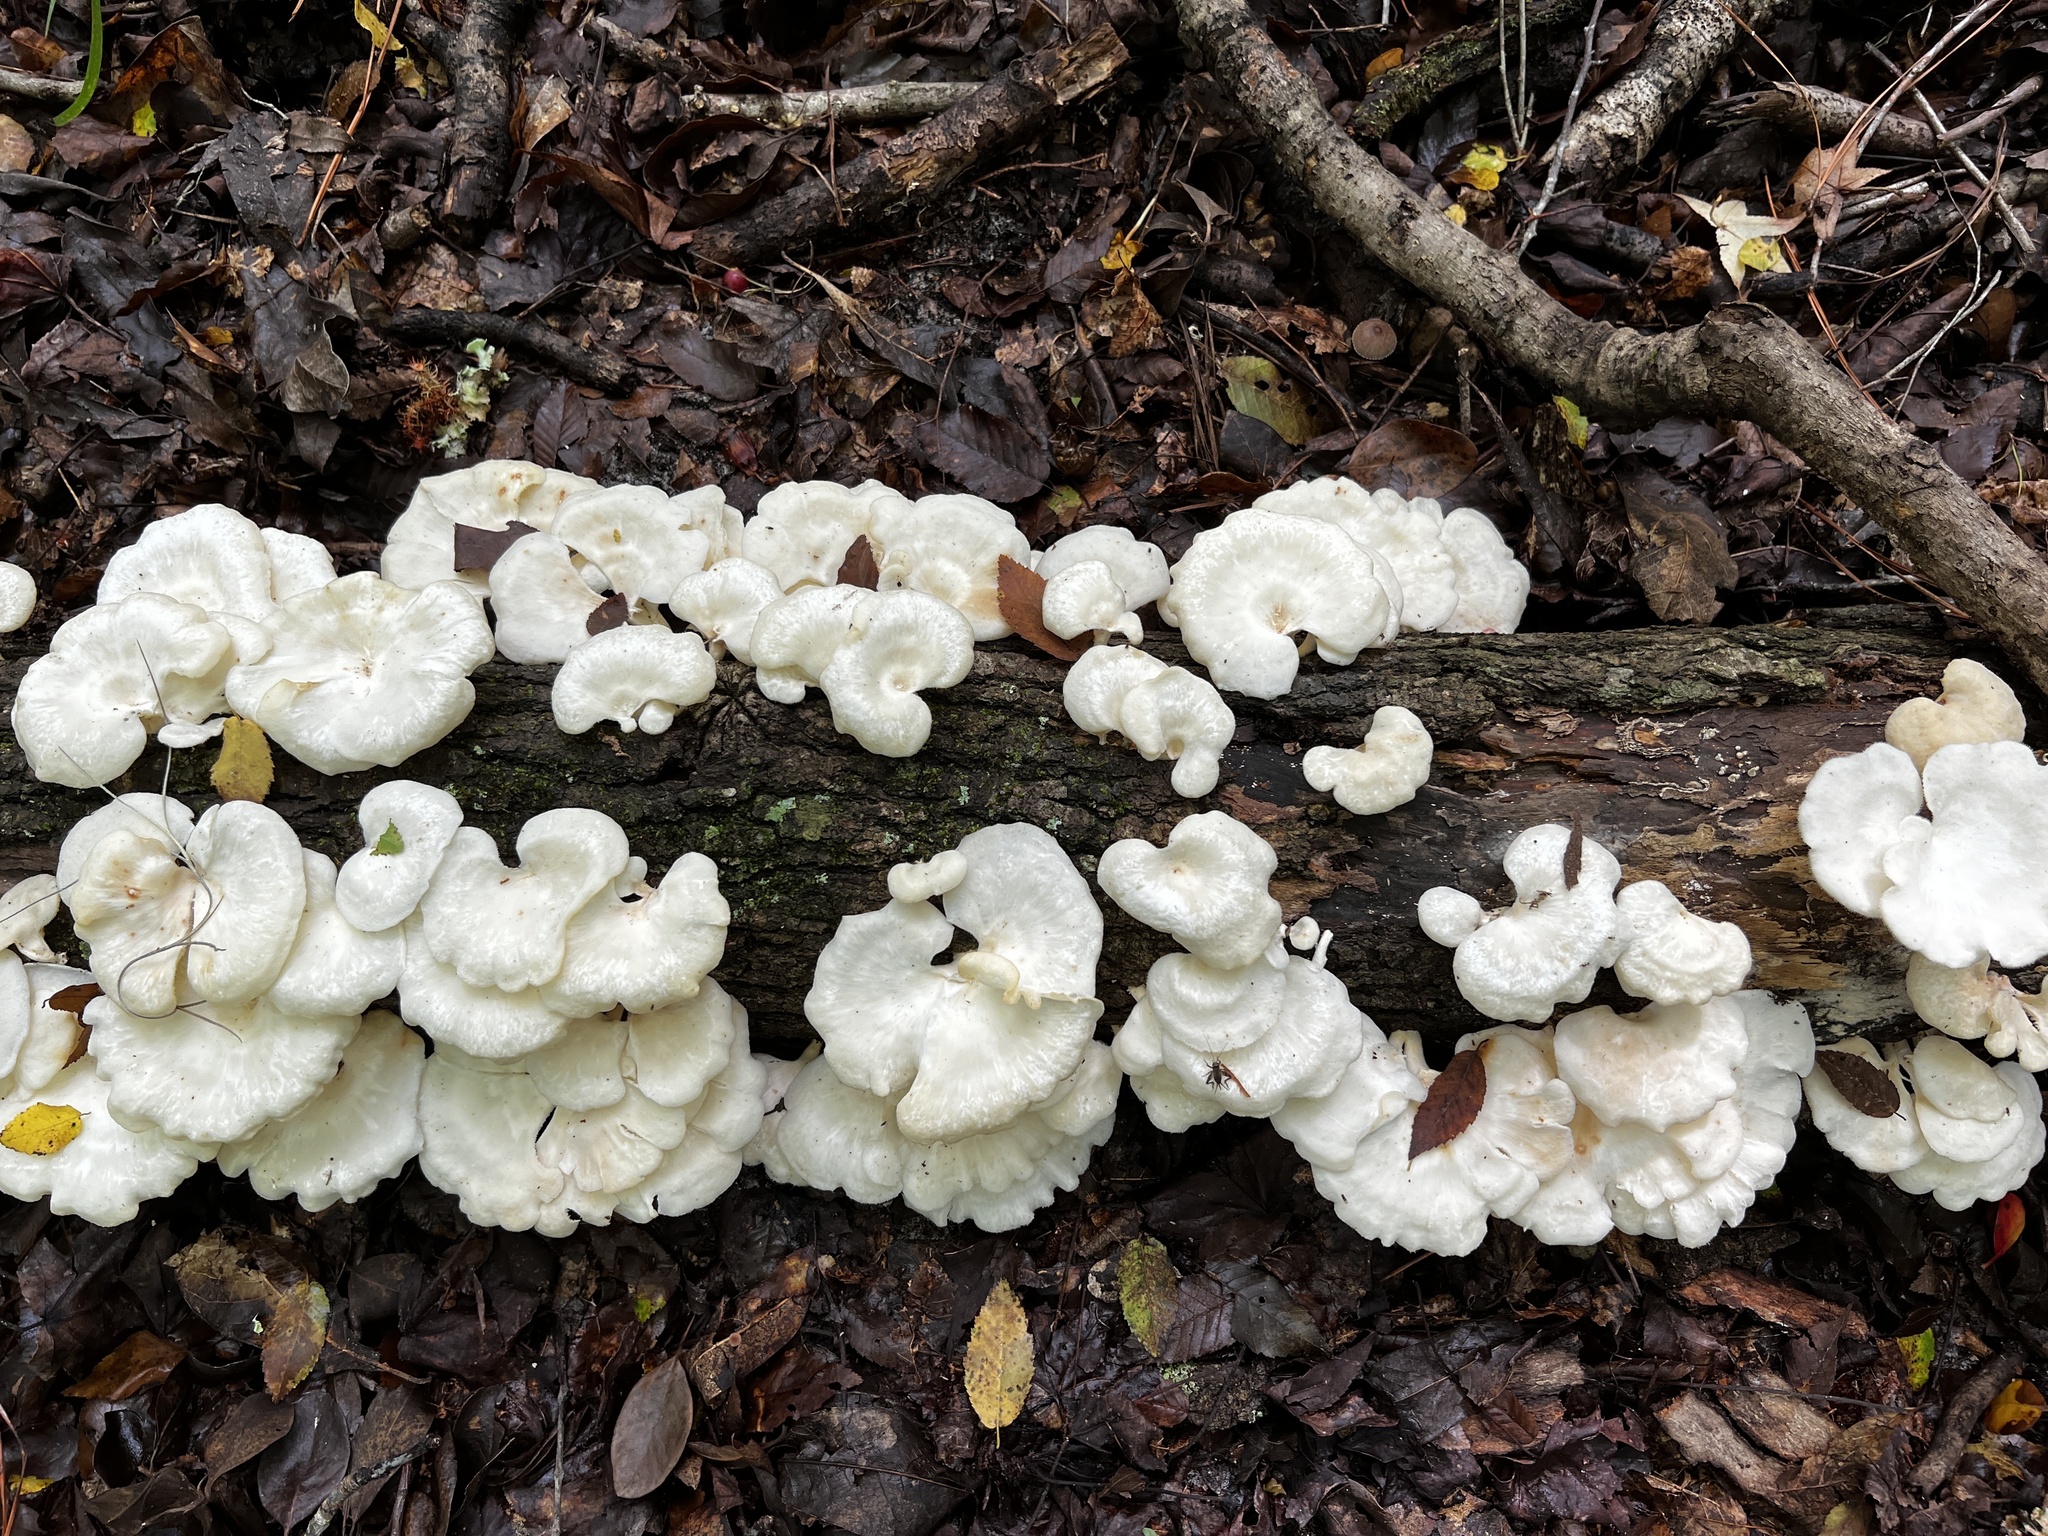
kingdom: Fungi
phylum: Basidiomycota
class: Agaricomycetes
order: Polyporales
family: Polyporaceae
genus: Favolus
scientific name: Favolus tenuiculus
